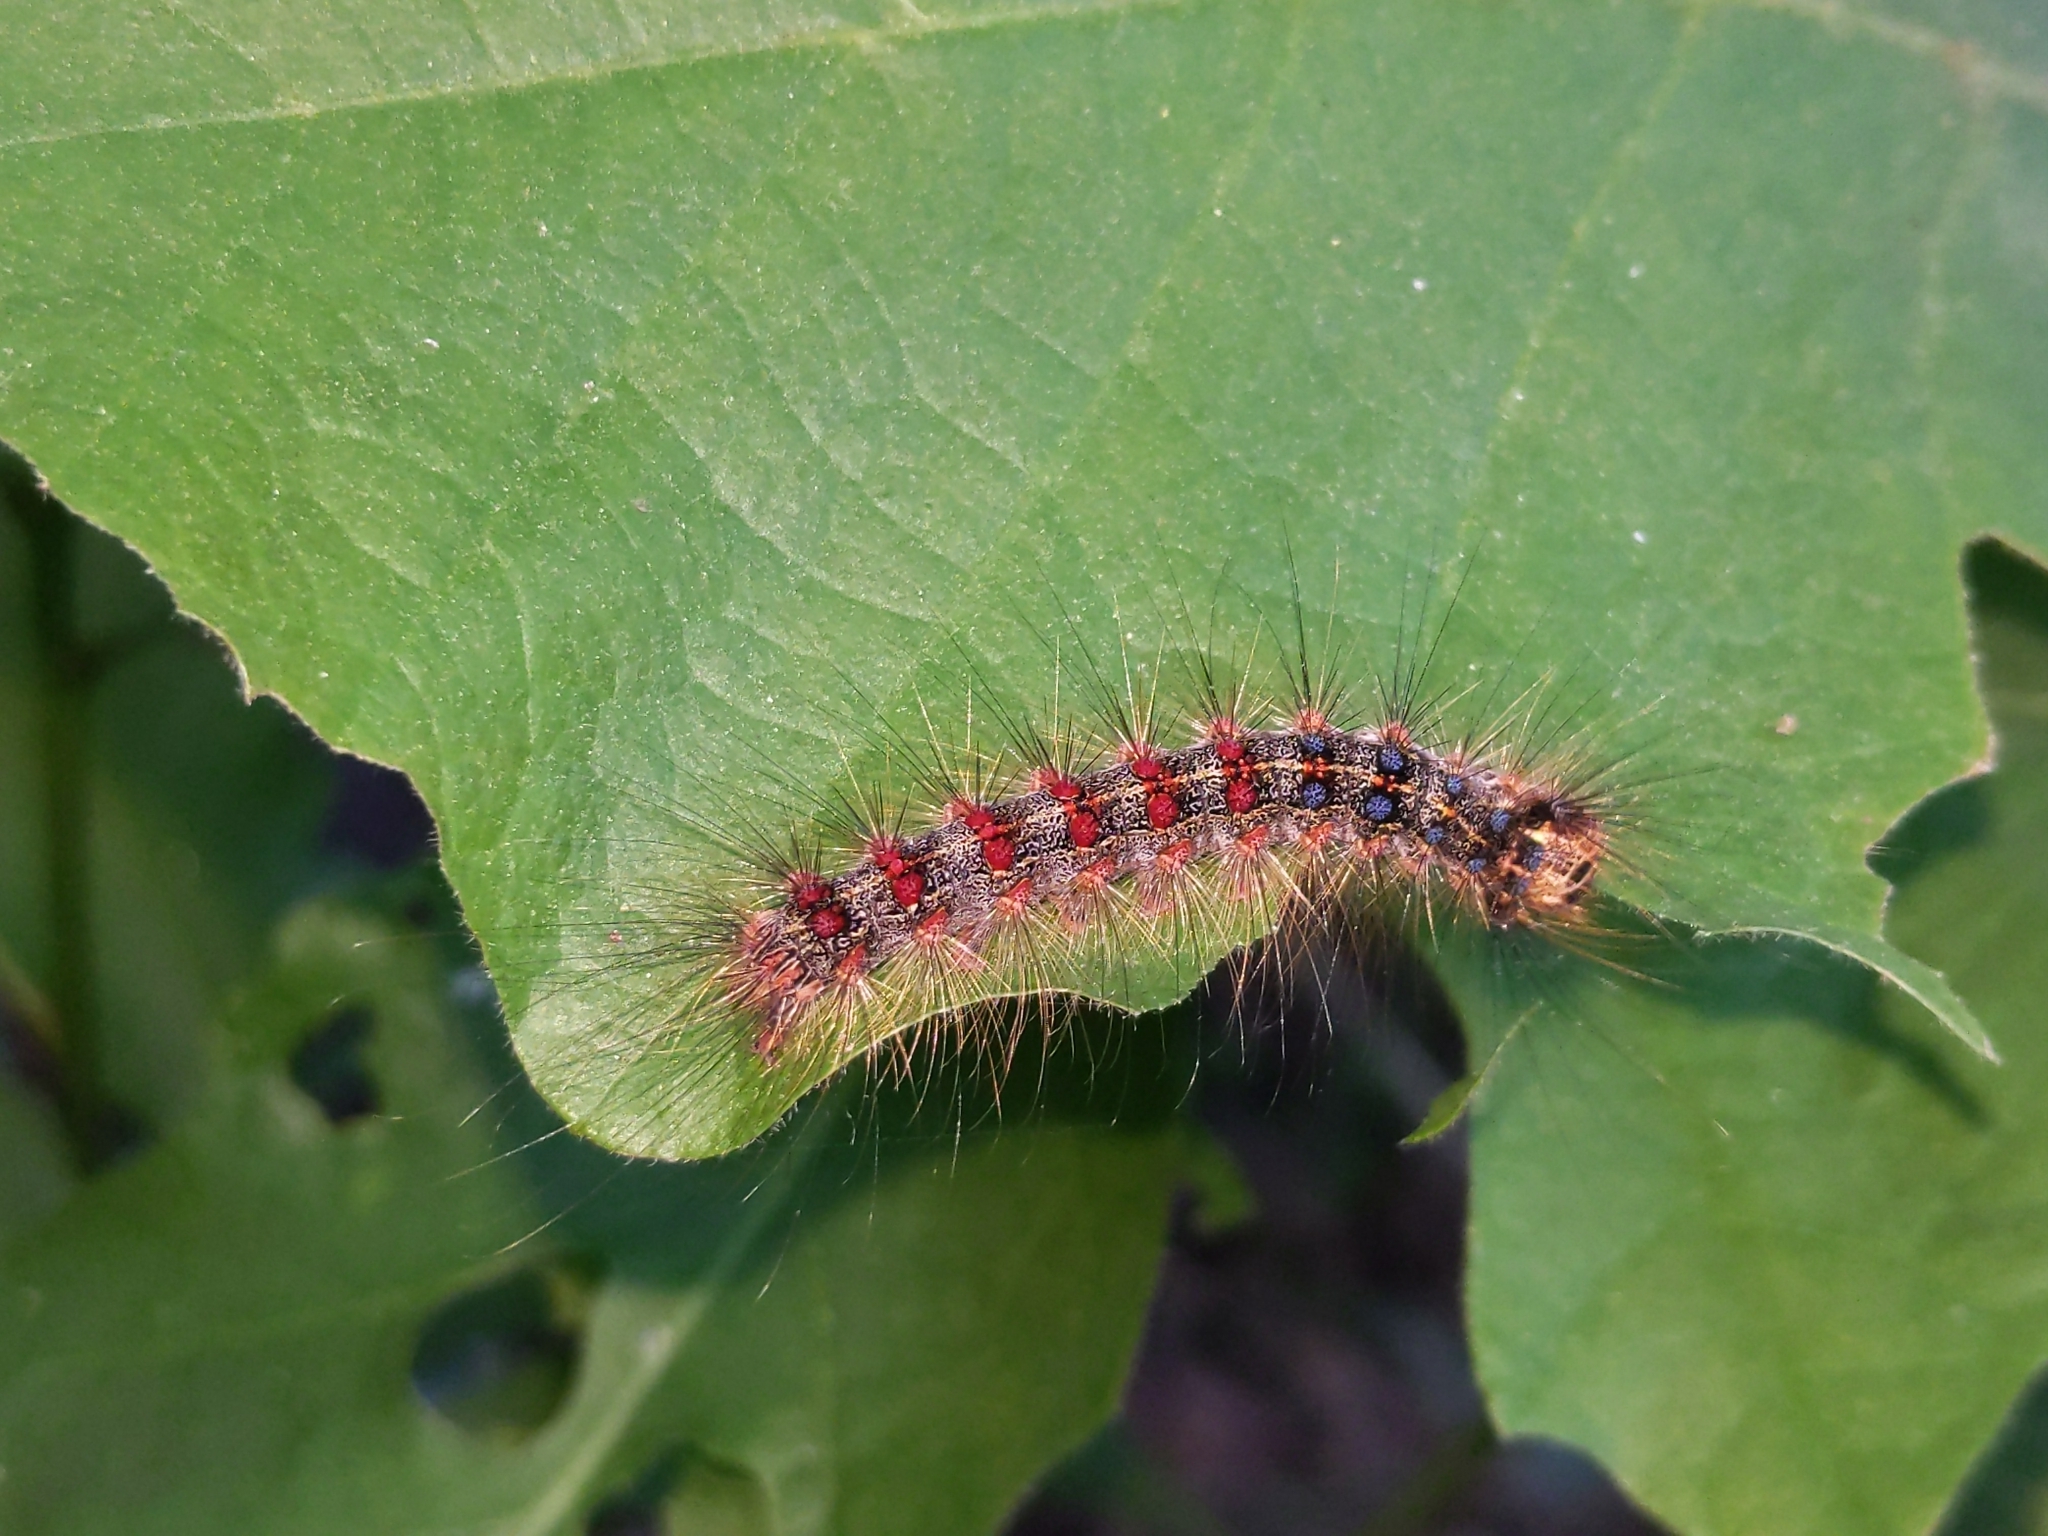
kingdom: Animalia
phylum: Arthropoda
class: Insecta
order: Lepidoptera
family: Erebidae
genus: Lymantria
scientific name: Lymantria dispar
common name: Gypsy moth
